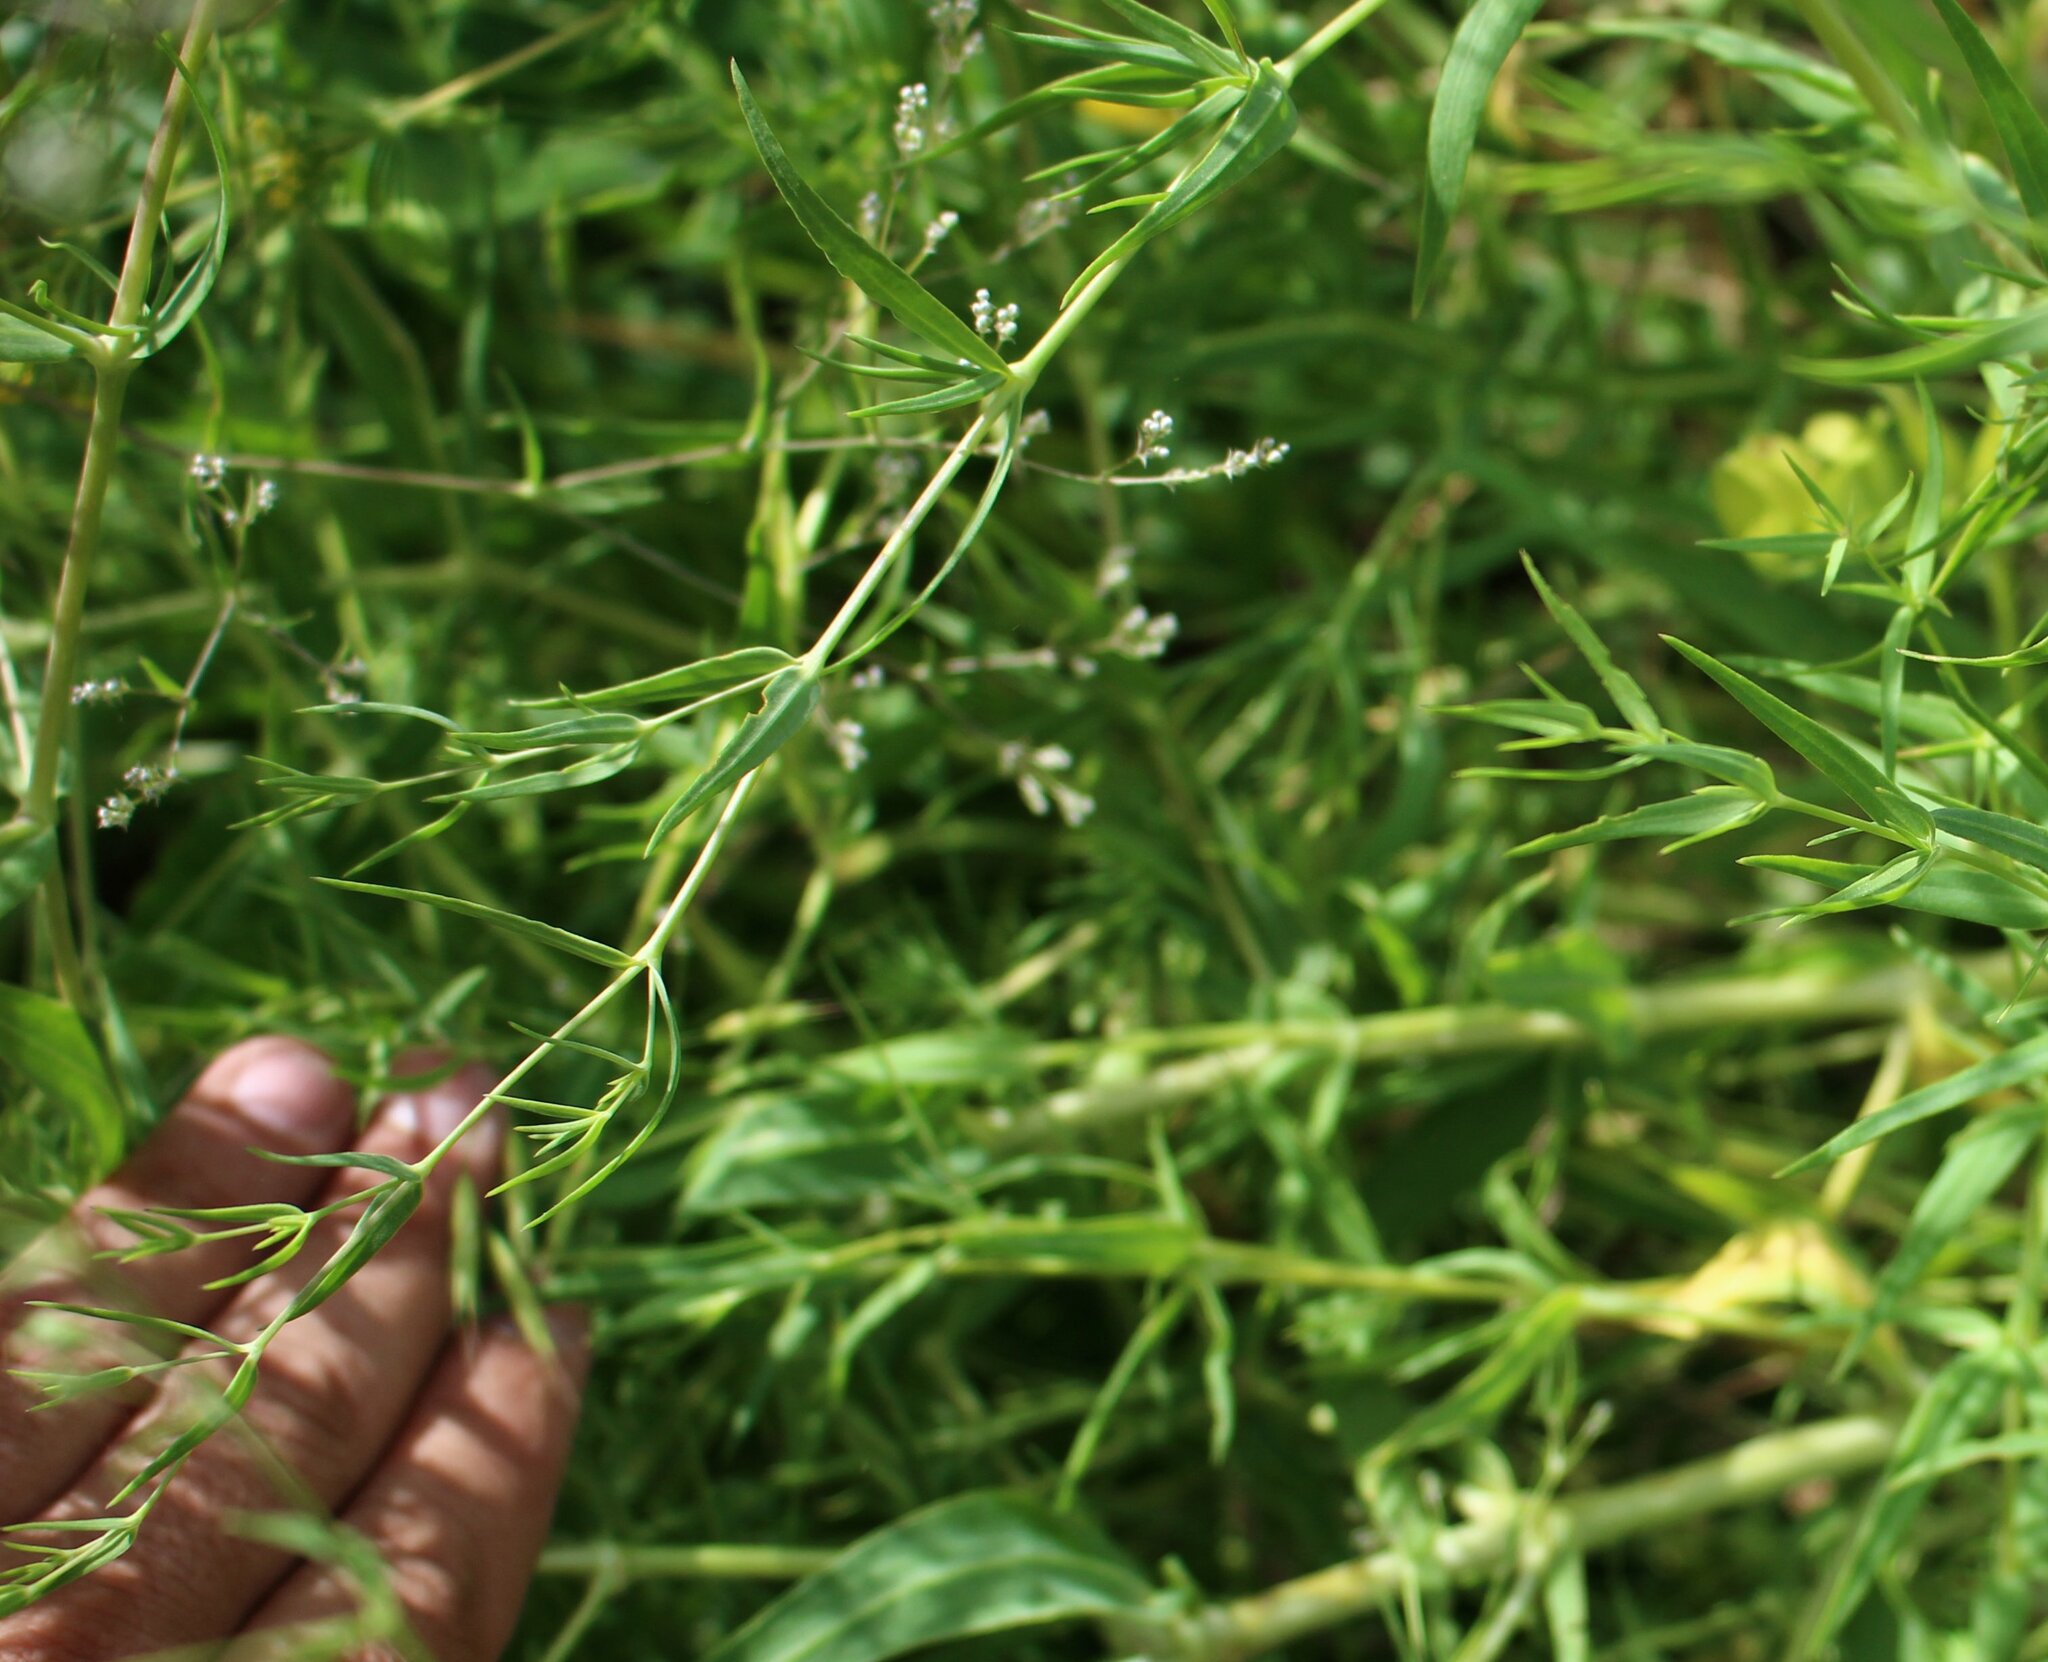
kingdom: Plantae
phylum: Tracheophyta
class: Magnoliopsida
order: Caryophyllales
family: Caryophyllaceae
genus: Gypsophila
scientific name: Gypsophila paniculata
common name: Baby's-breath
